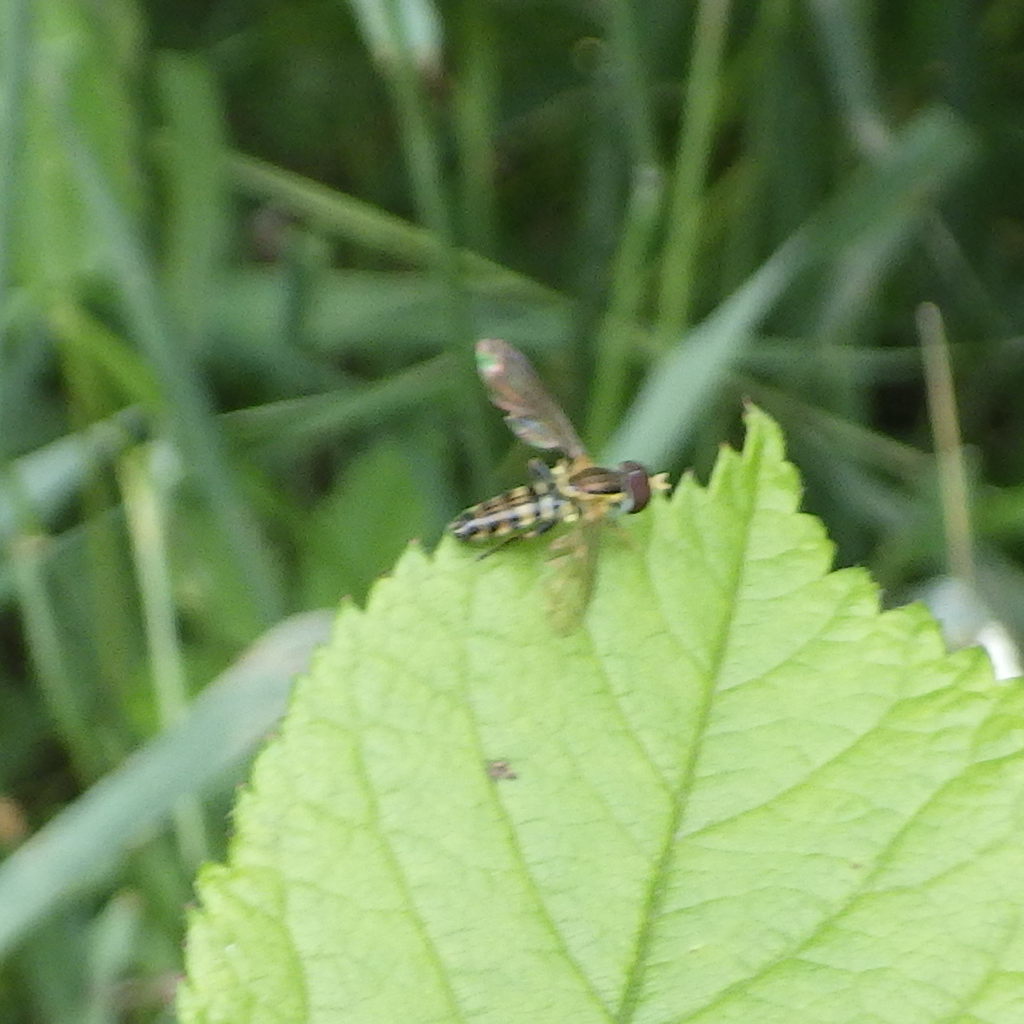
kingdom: Animalia
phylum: Arthropoda
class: Insecta
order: Diptera
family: Syrphidae
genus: Toxomerus
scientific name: Toxomerus geminatus
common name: Eastern calligrapher
